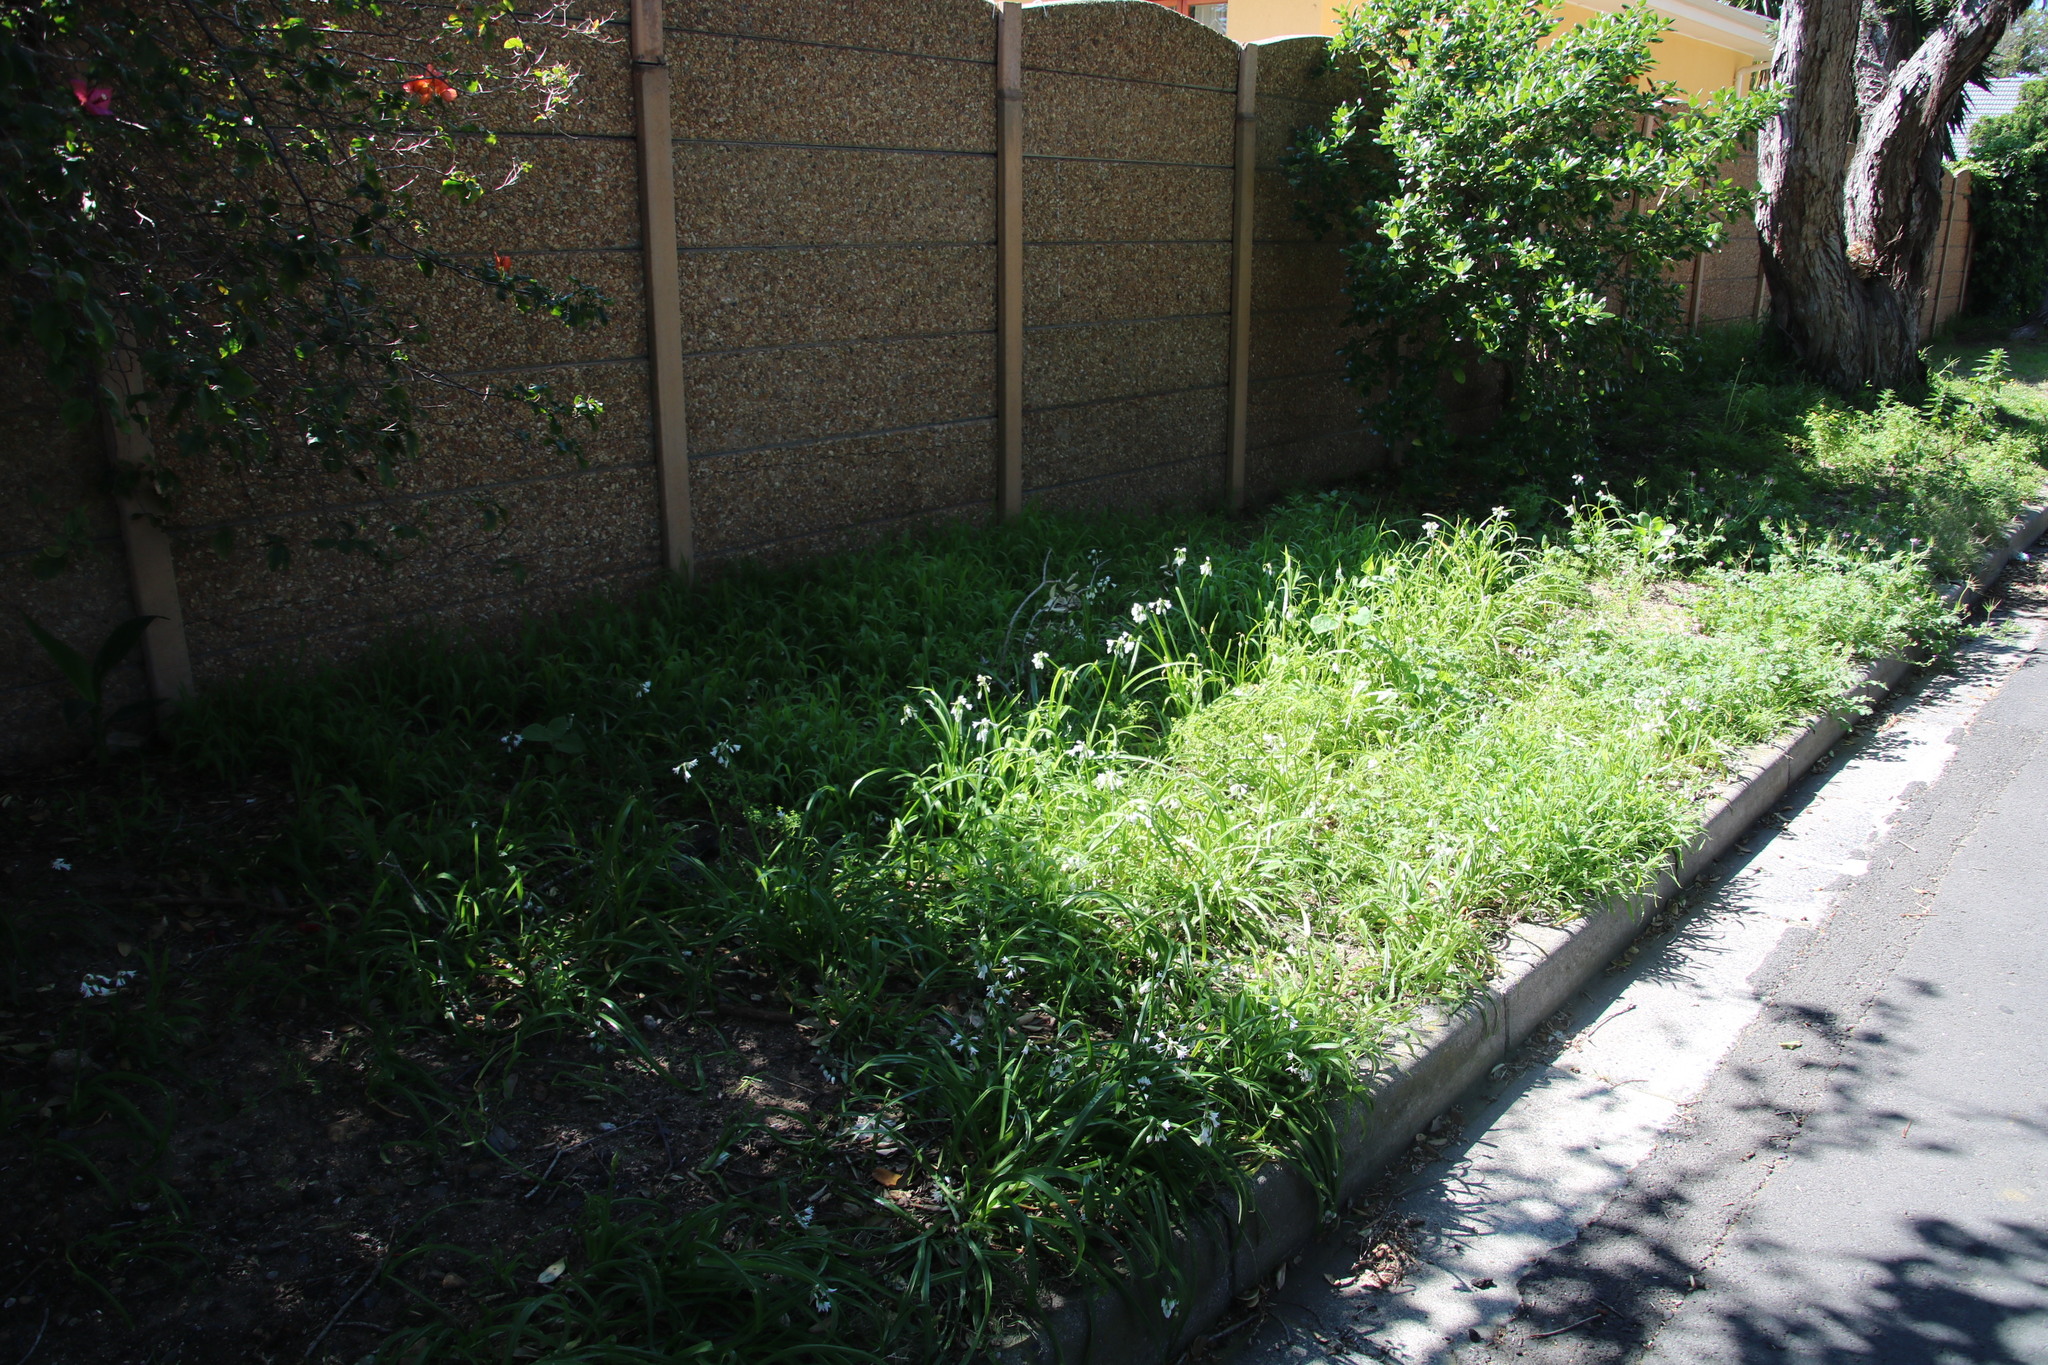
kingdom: Plantae
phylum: Tracheophyta
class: Liliopsida
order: Asparagales
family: Amaryllidaceae
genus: Allium
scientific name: Allium triquetrum
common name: Three-cornered garlic
